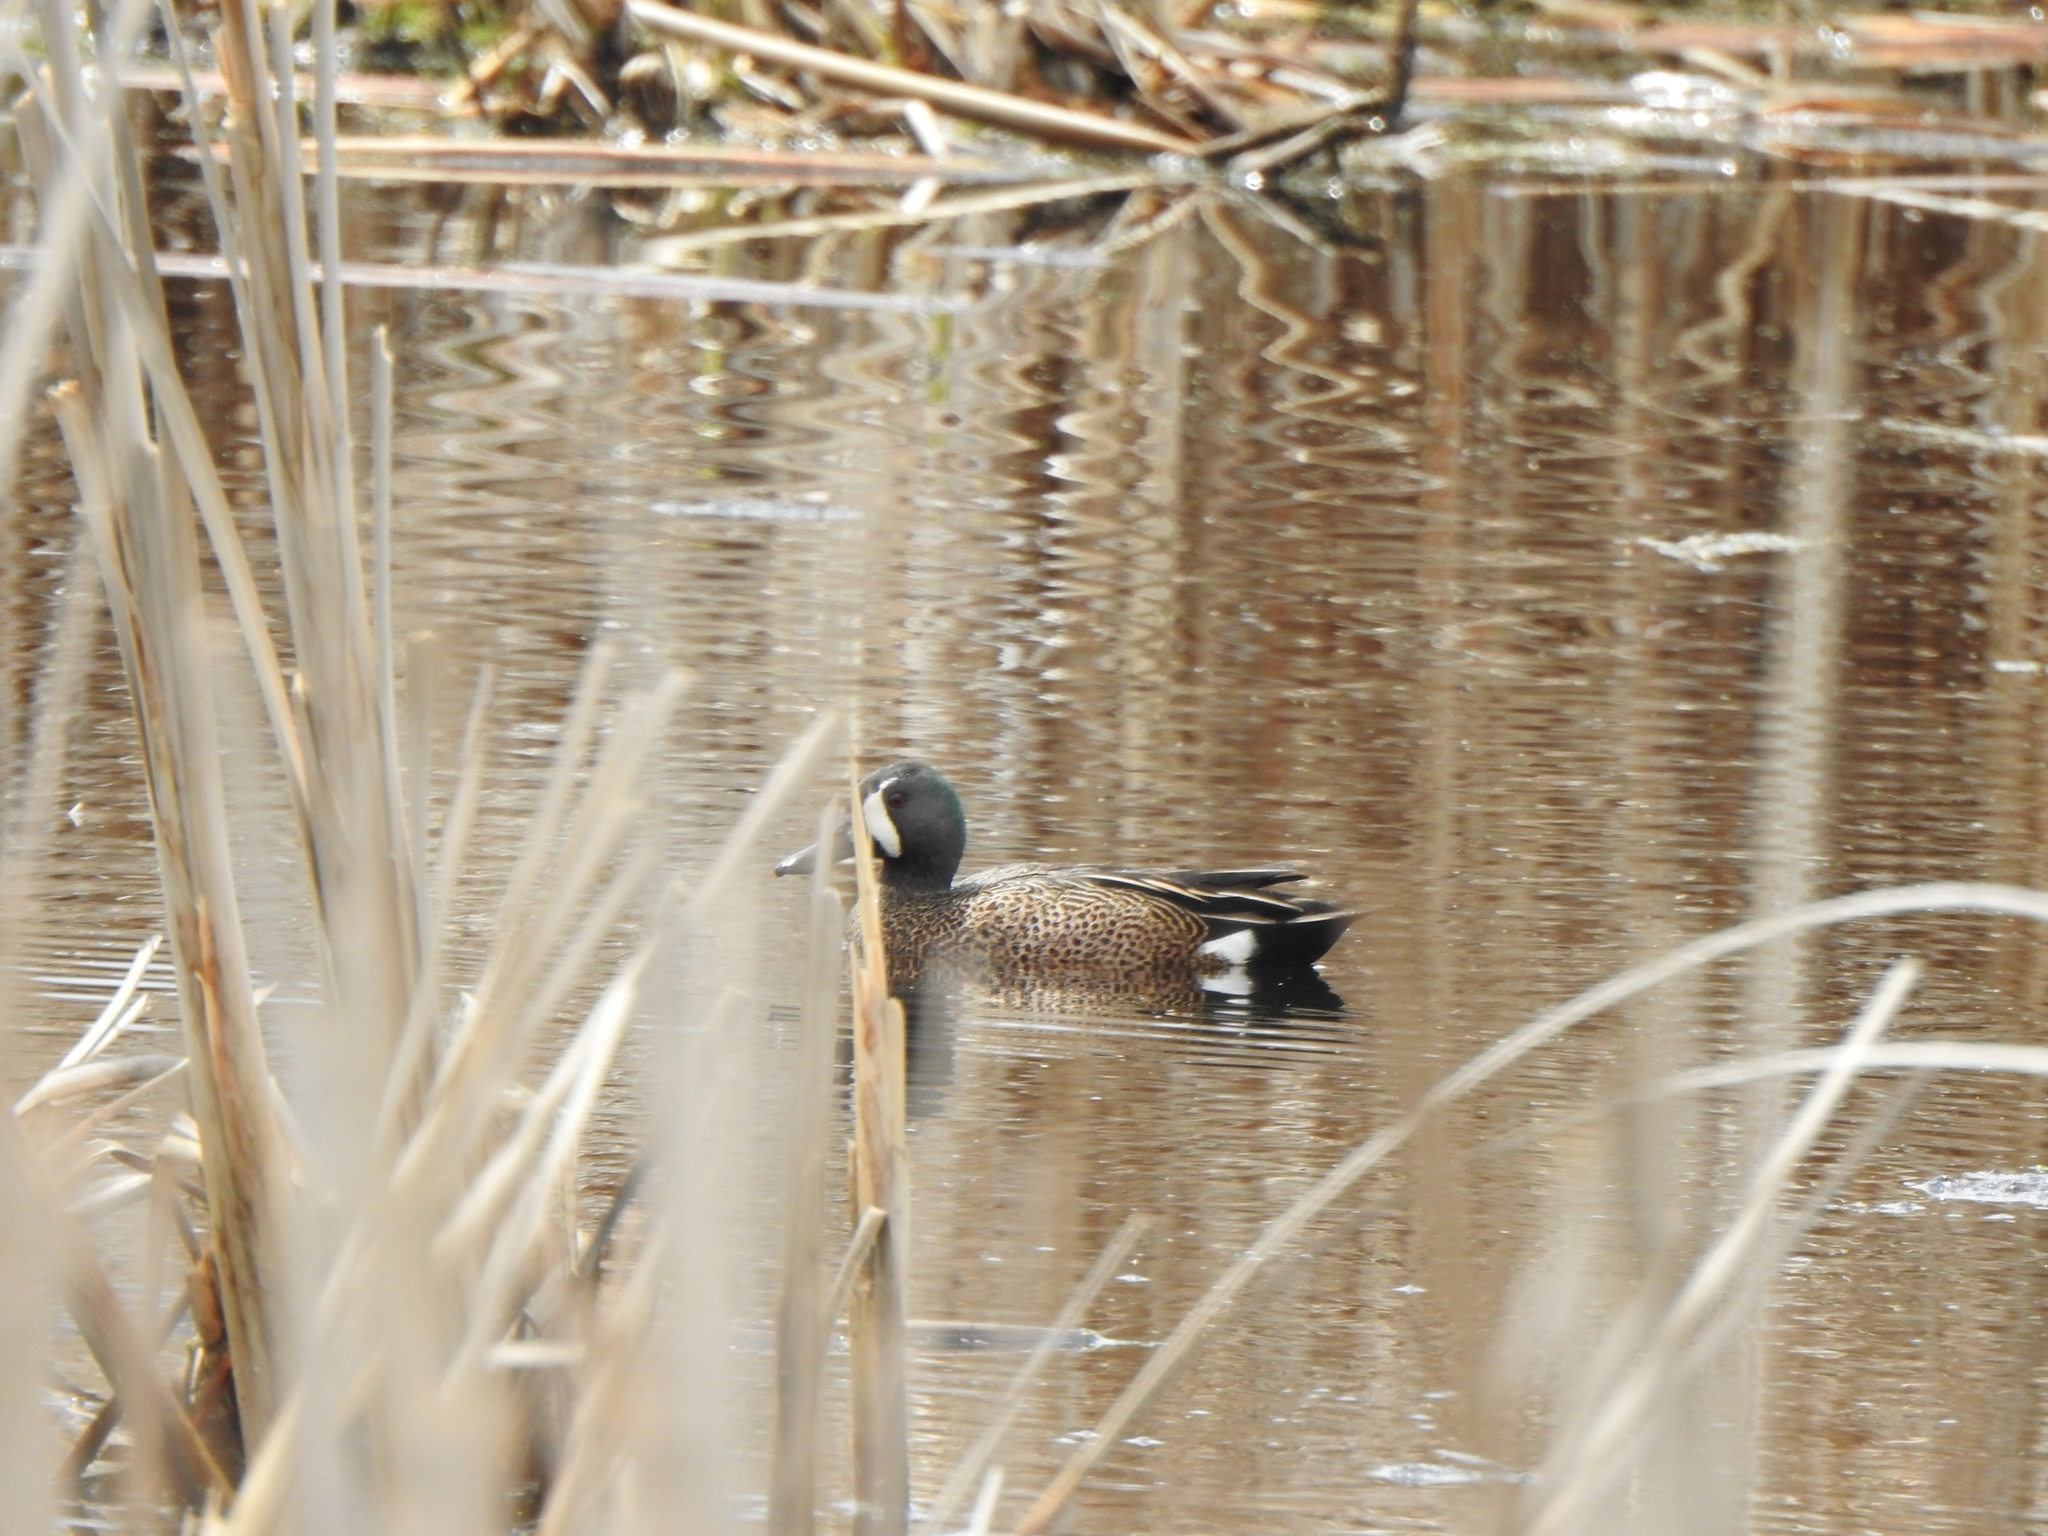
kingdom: Animalia
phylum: Chordata
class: Aves
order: Anseriformes
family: Anatidae
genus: Spatula
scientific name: Spatula discors
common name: Blue-winged teal
